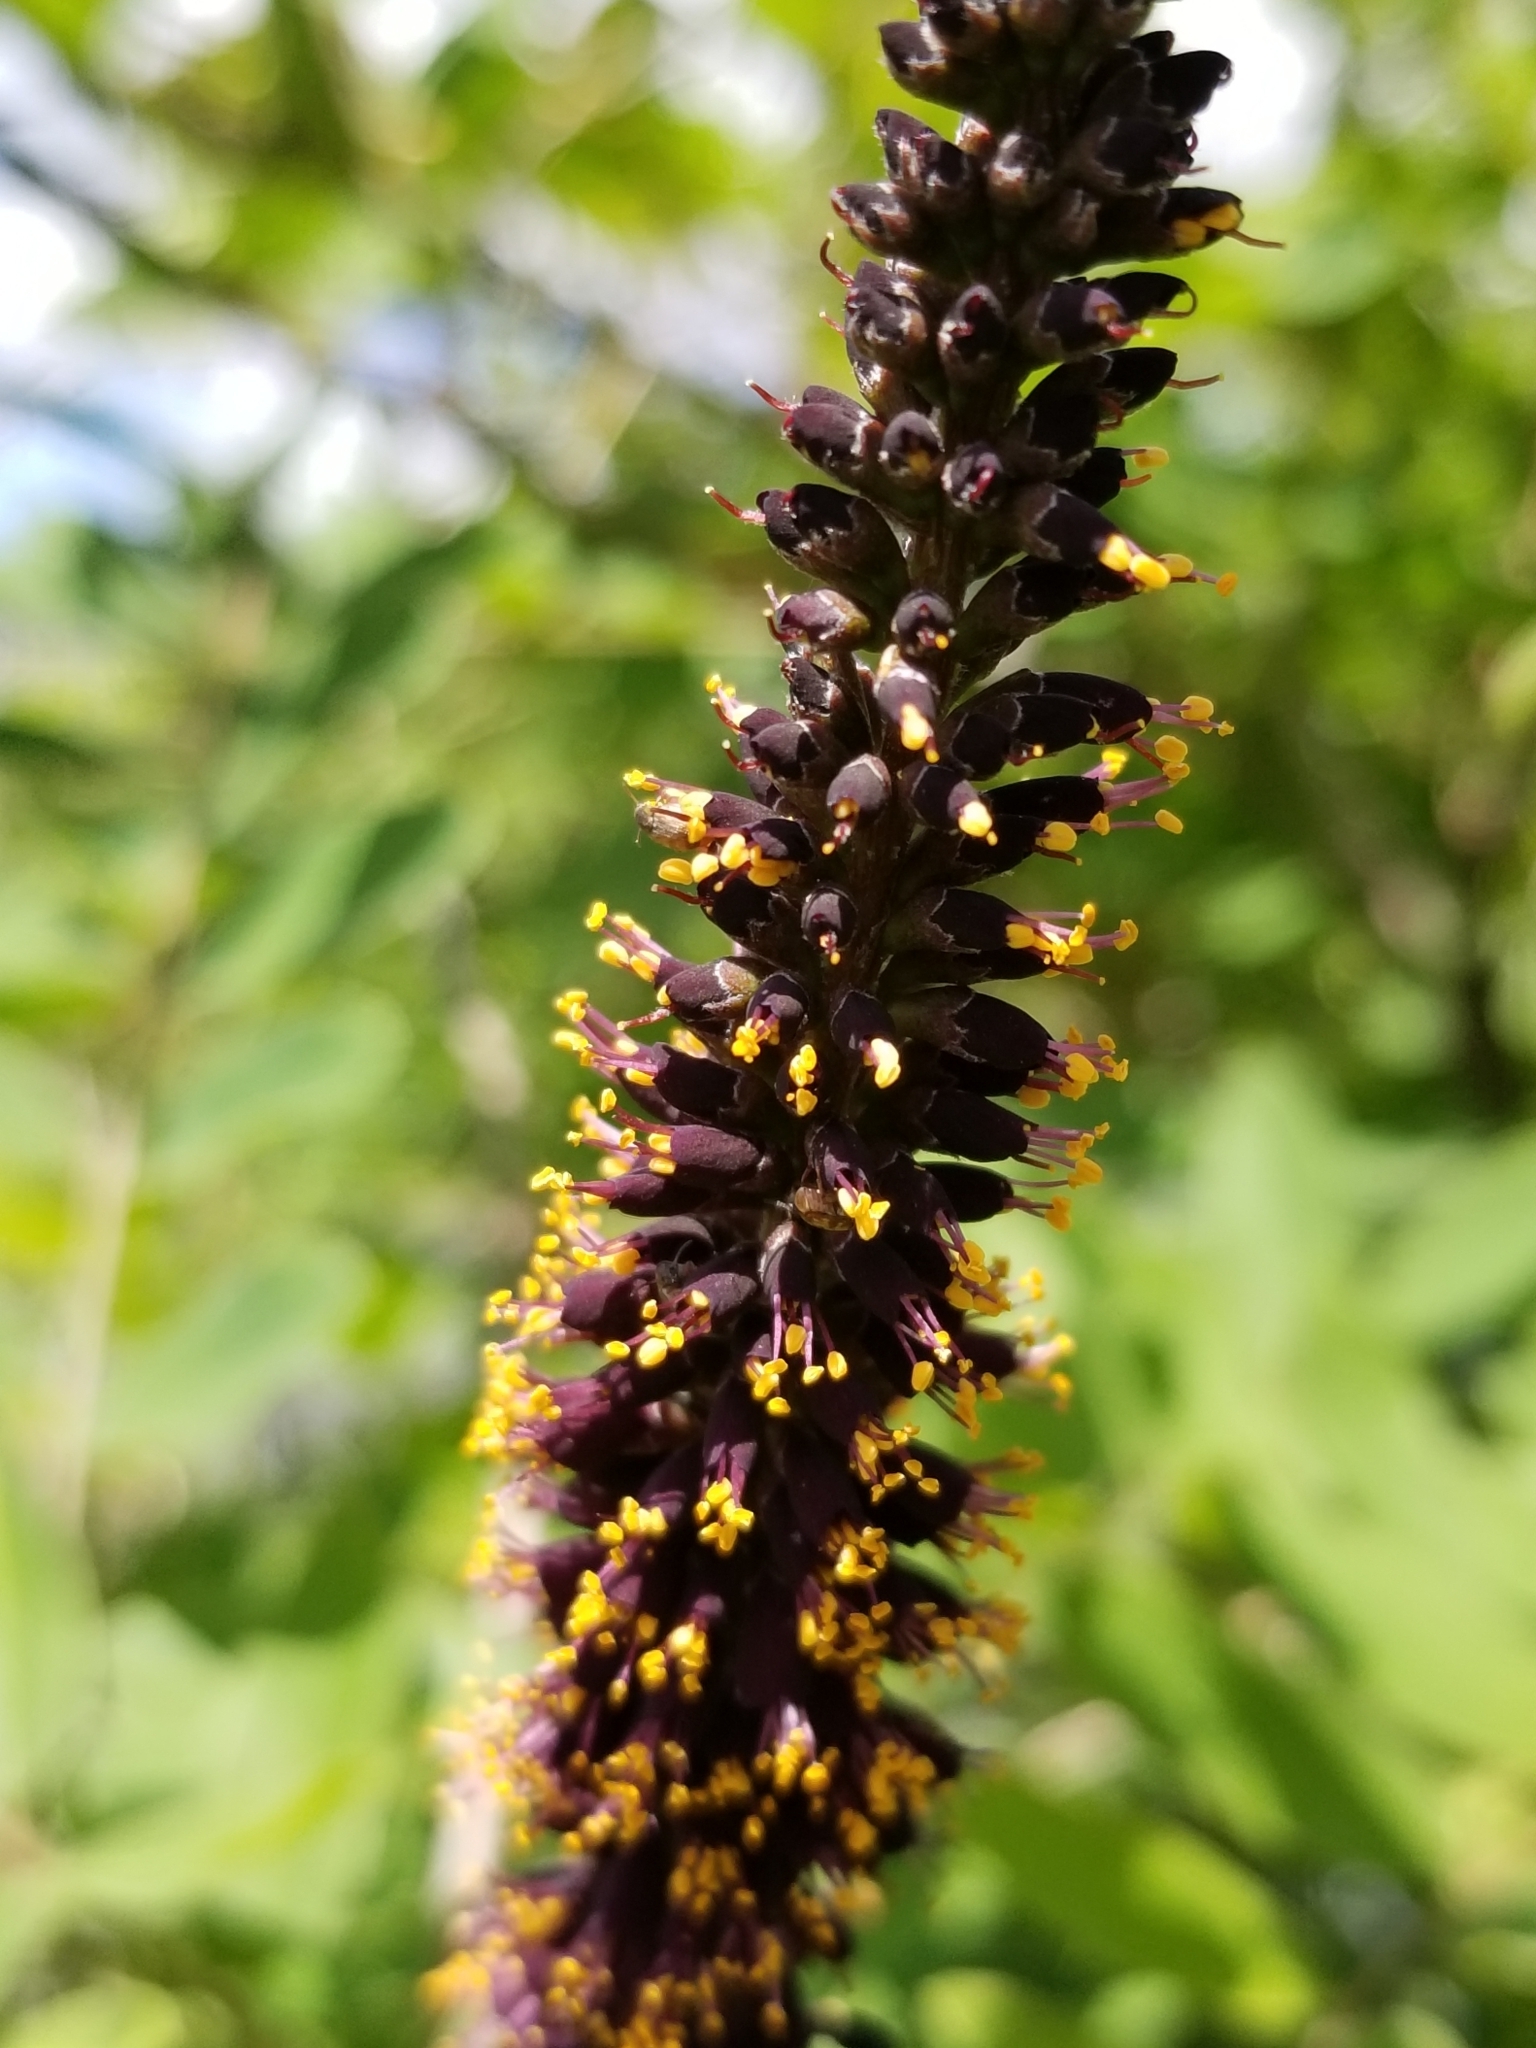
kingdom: Plantae
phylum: Tracheophyta
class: Magnoliopsida
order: Fabales
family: Fabaceae
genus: Amorpha
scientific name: Amorpha fruticosa
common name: False indigo
